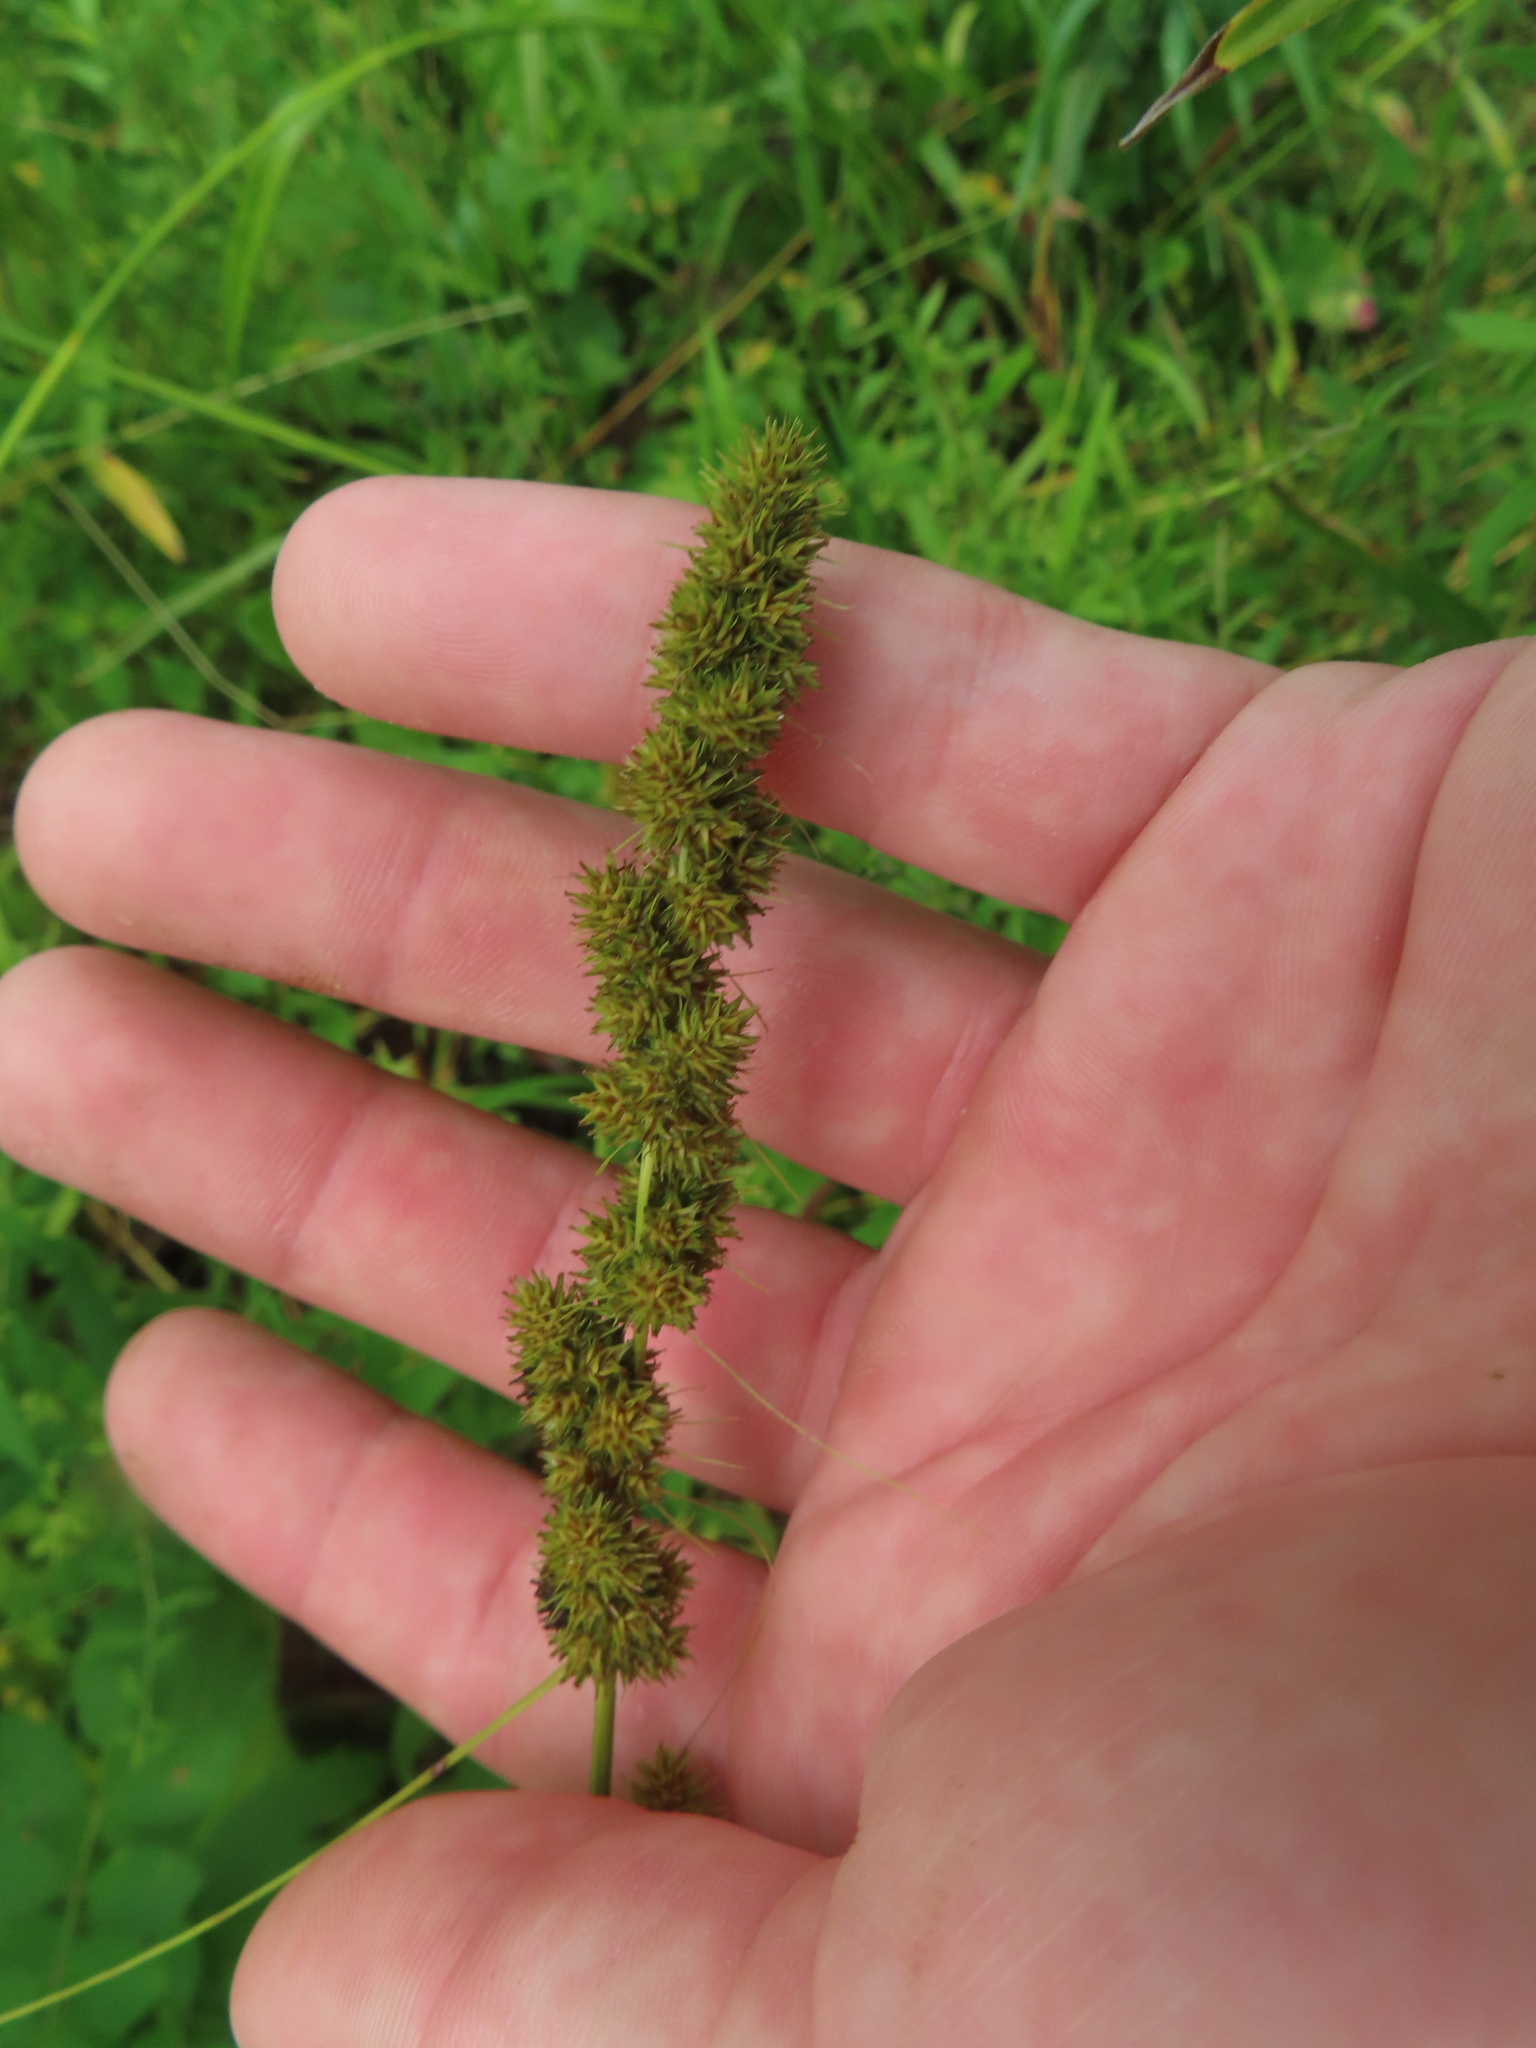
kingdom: Plantae
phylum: Tracheophyta
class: Liliopsida
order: Poales
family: Cyperaceae
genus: Carex
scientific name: Carex vulpinoidea
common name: American fox-sedge
